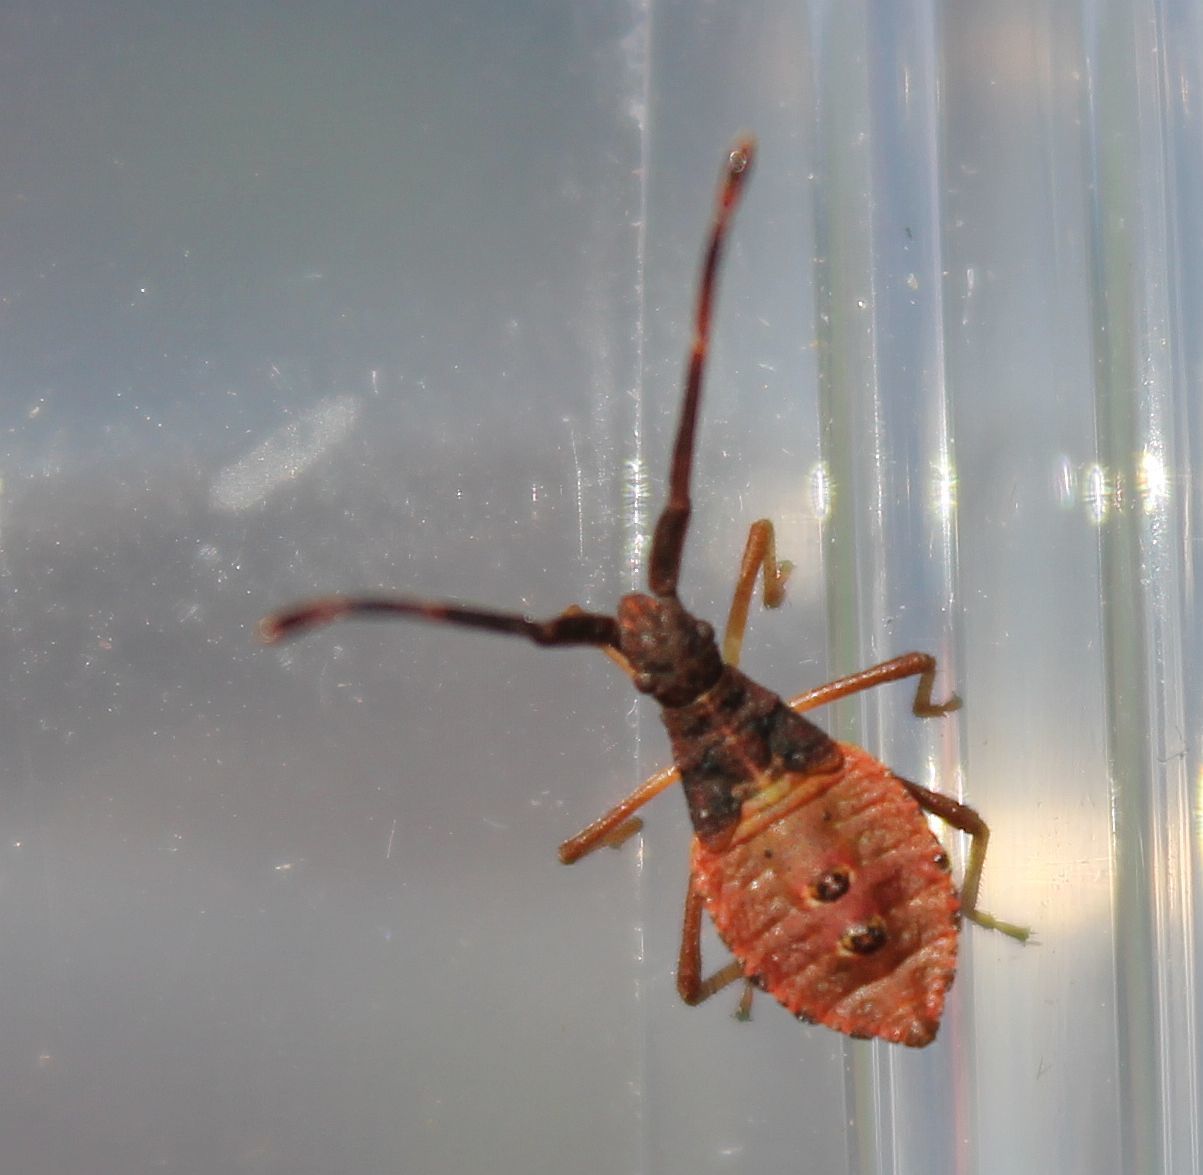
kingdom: Animalia
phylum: Arthropoda
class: Insecta
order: Hemiptera
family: Coreidae
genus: Gonocerus
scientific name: Gonocerus acuteangulatus
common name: Box bug
